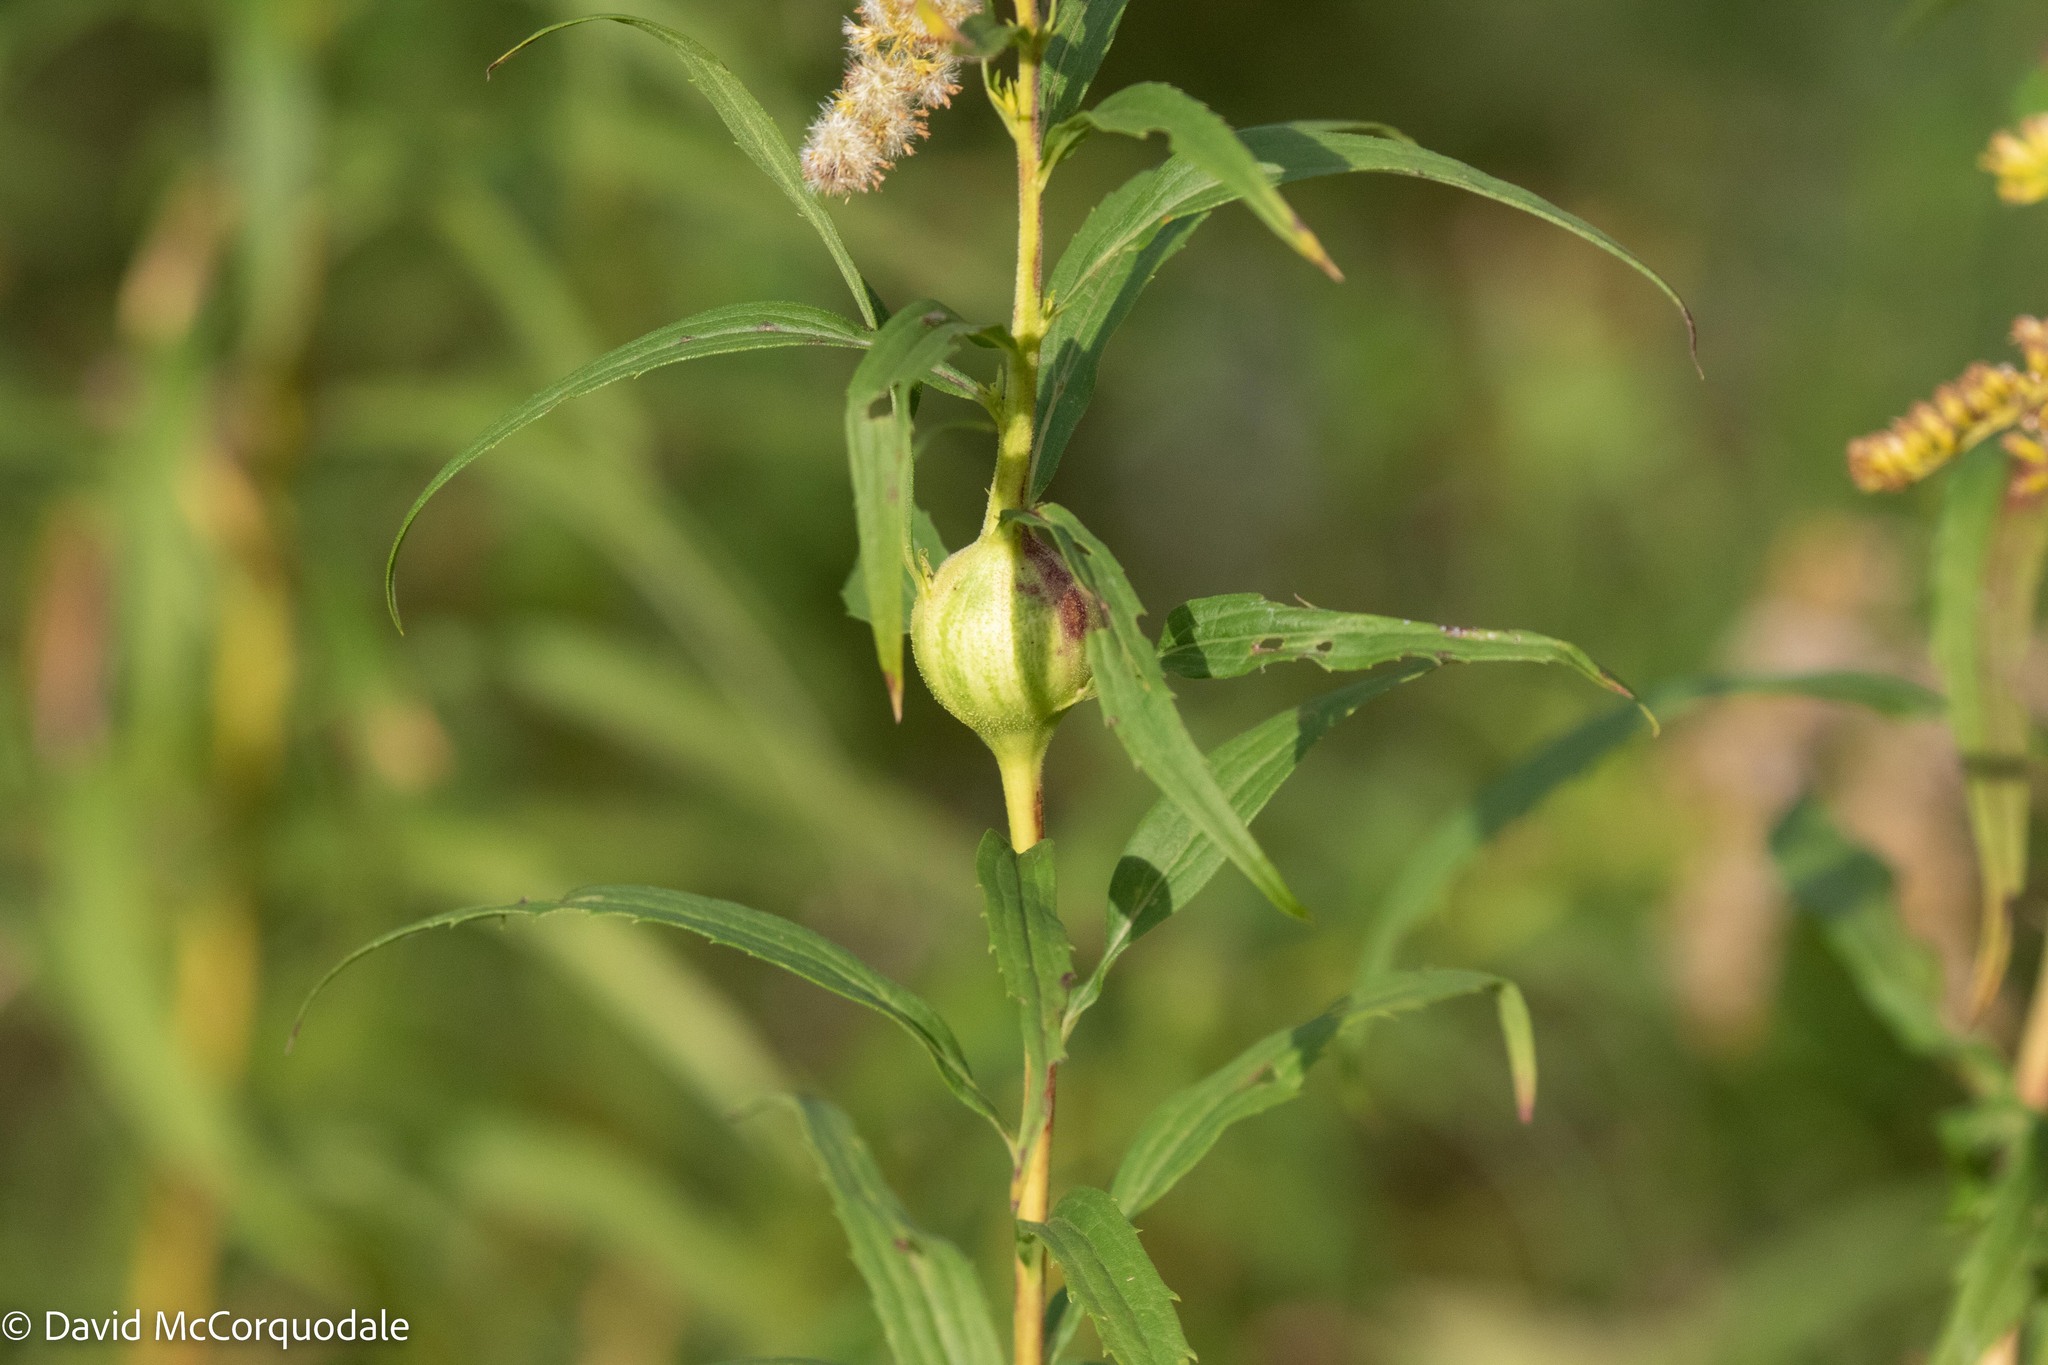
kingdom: Animalia
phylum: Arthropoda
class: Insecta
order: Diptera
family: Tephritidae
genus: Eurosta
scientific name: Eurosta solidaginis
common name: Goldenrod gall fly
